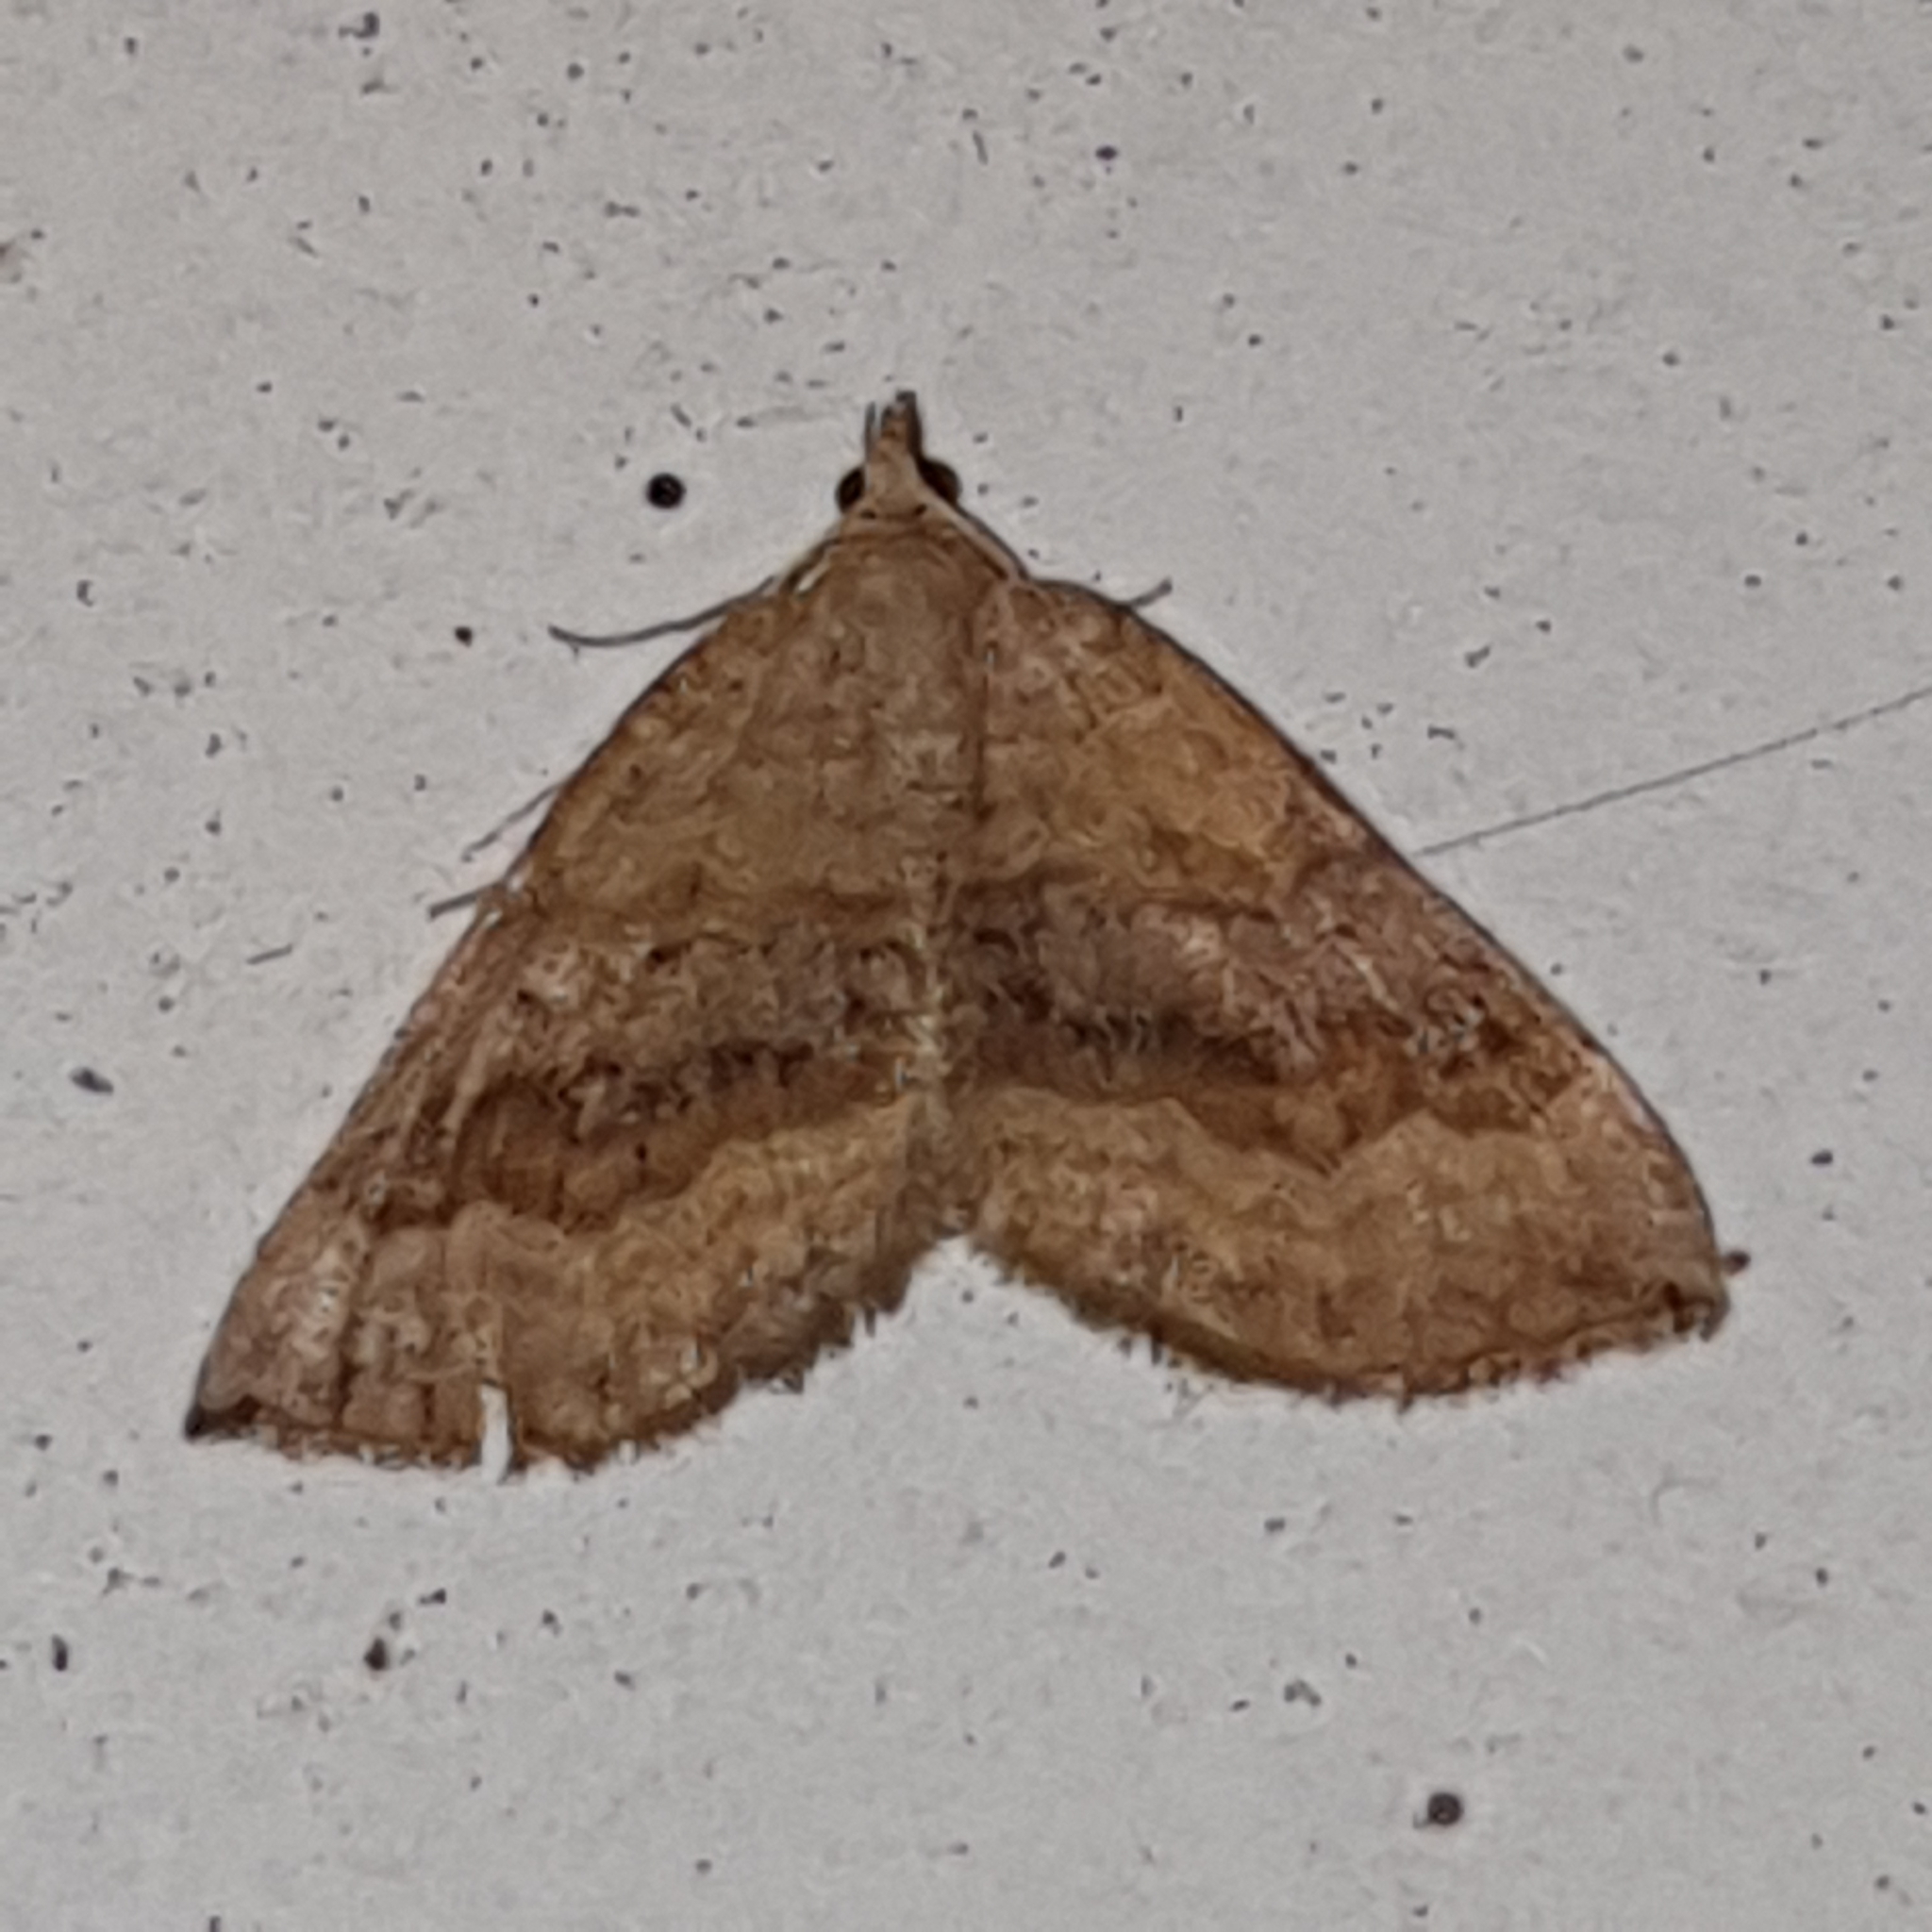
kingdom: Animalia
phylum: Arthropoda
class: Insecta
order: Lepidoptera
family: Geometridae
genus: Scotopteryx
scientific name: Scotopteryx chenopodiata
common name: Shaded broad-bar
